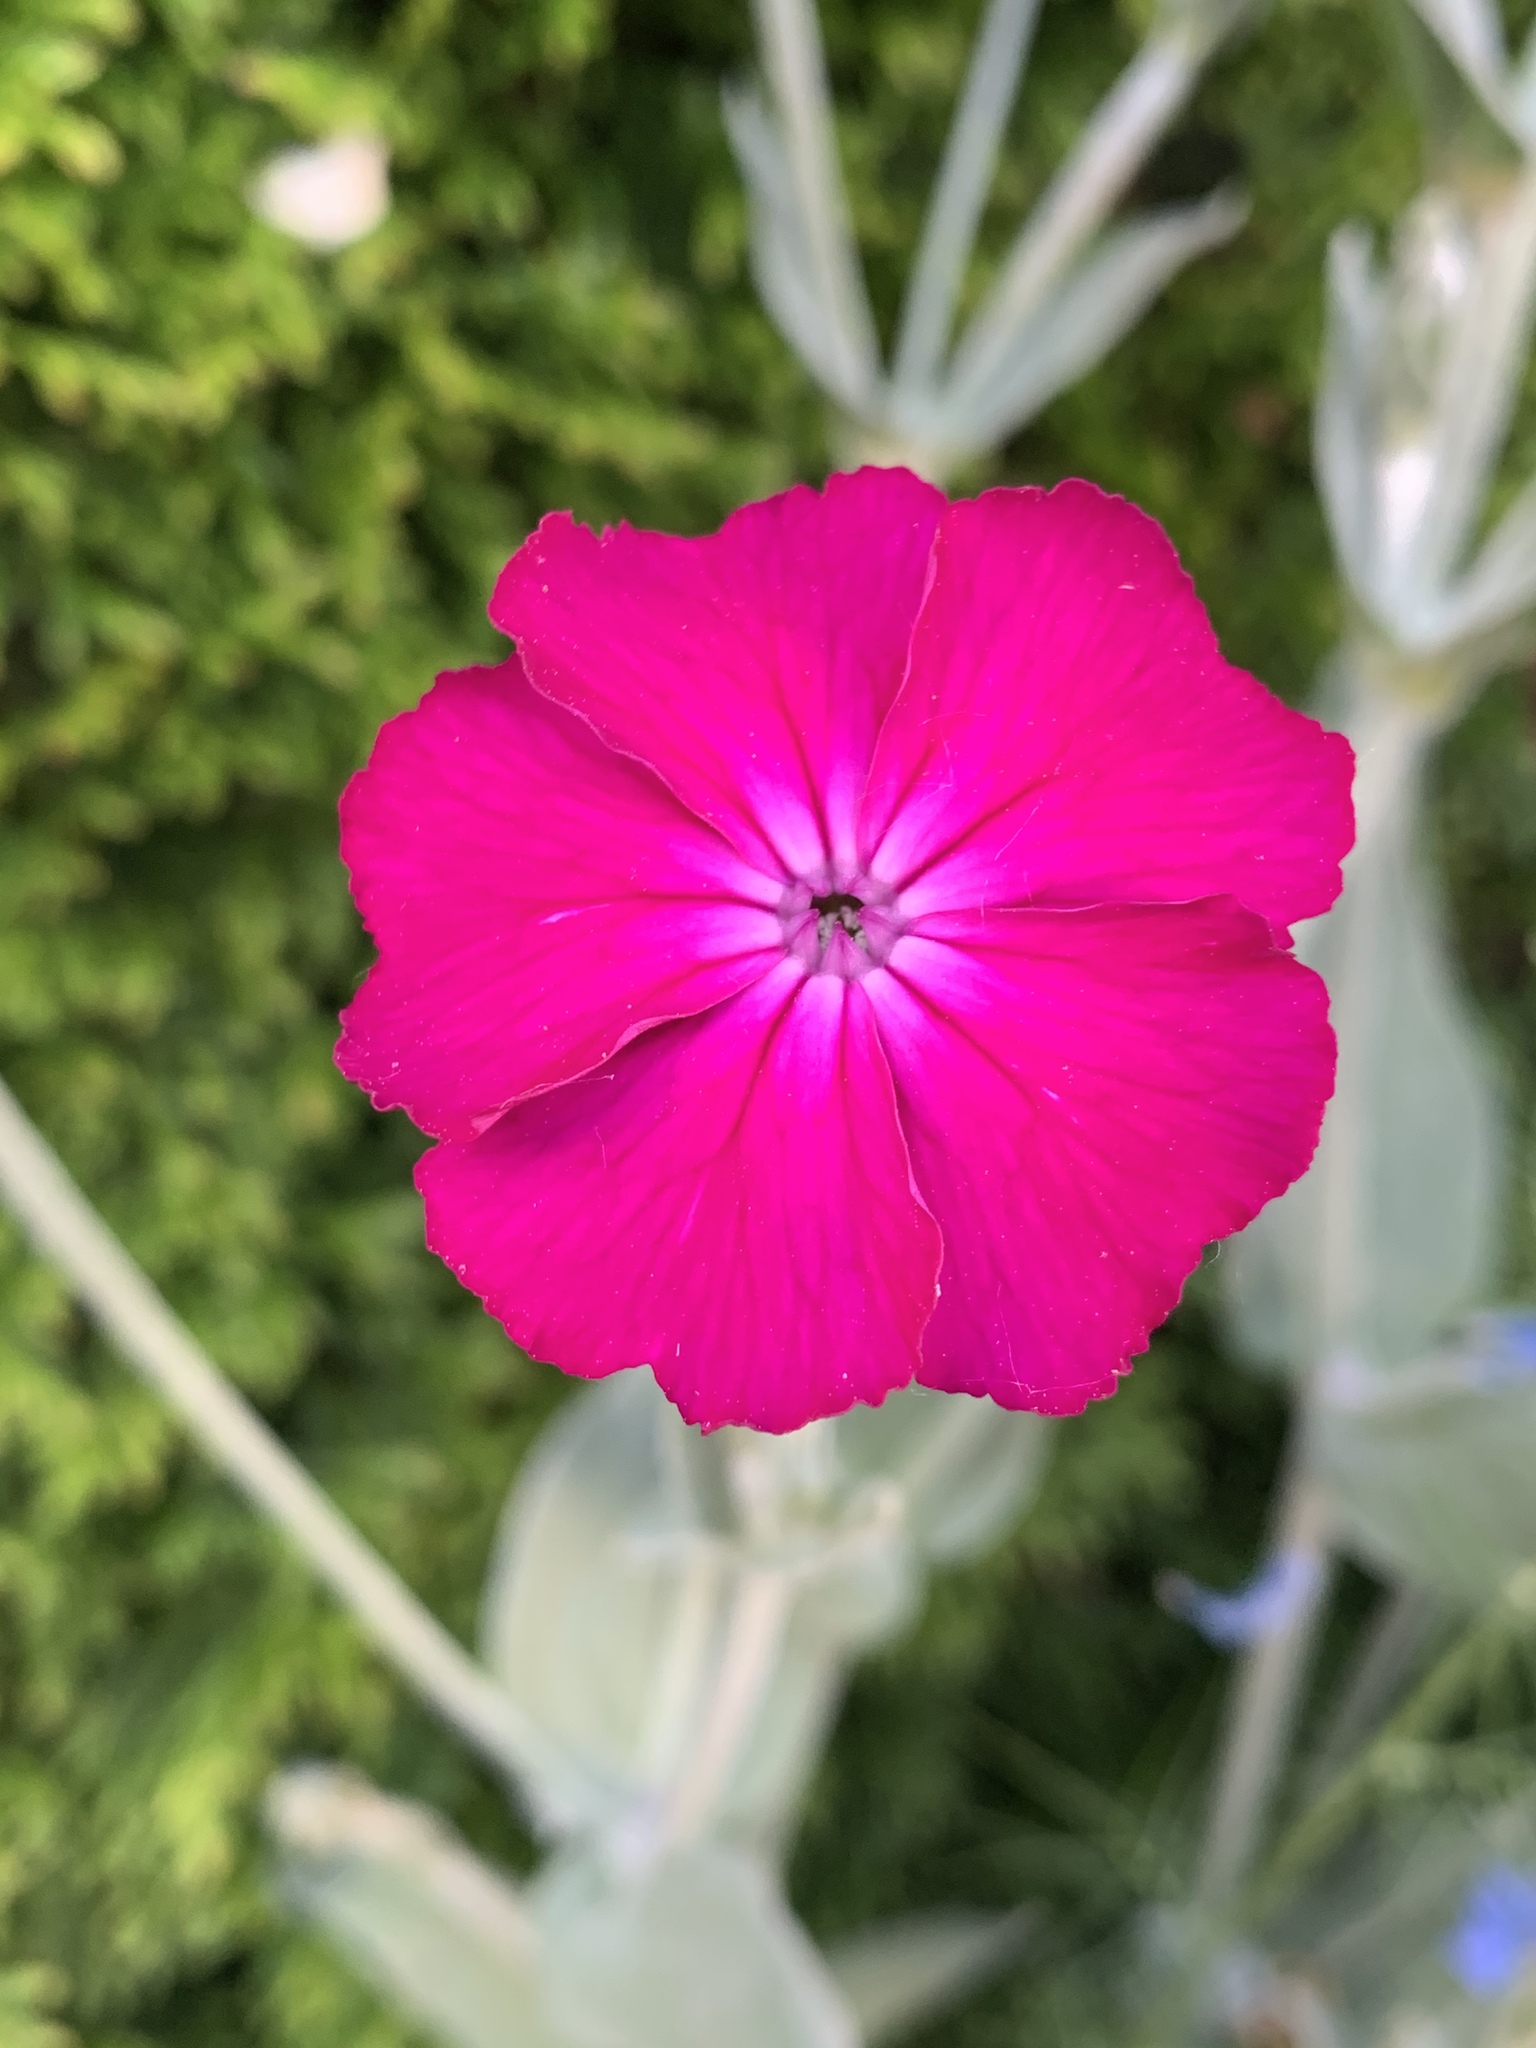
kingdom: Plantae
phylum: Tracheophyta
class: Magnoliopsida
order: Caryophyllales
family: Caryophyllaceae
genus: Silene
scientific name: Silene coronaria
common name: Rose campion
